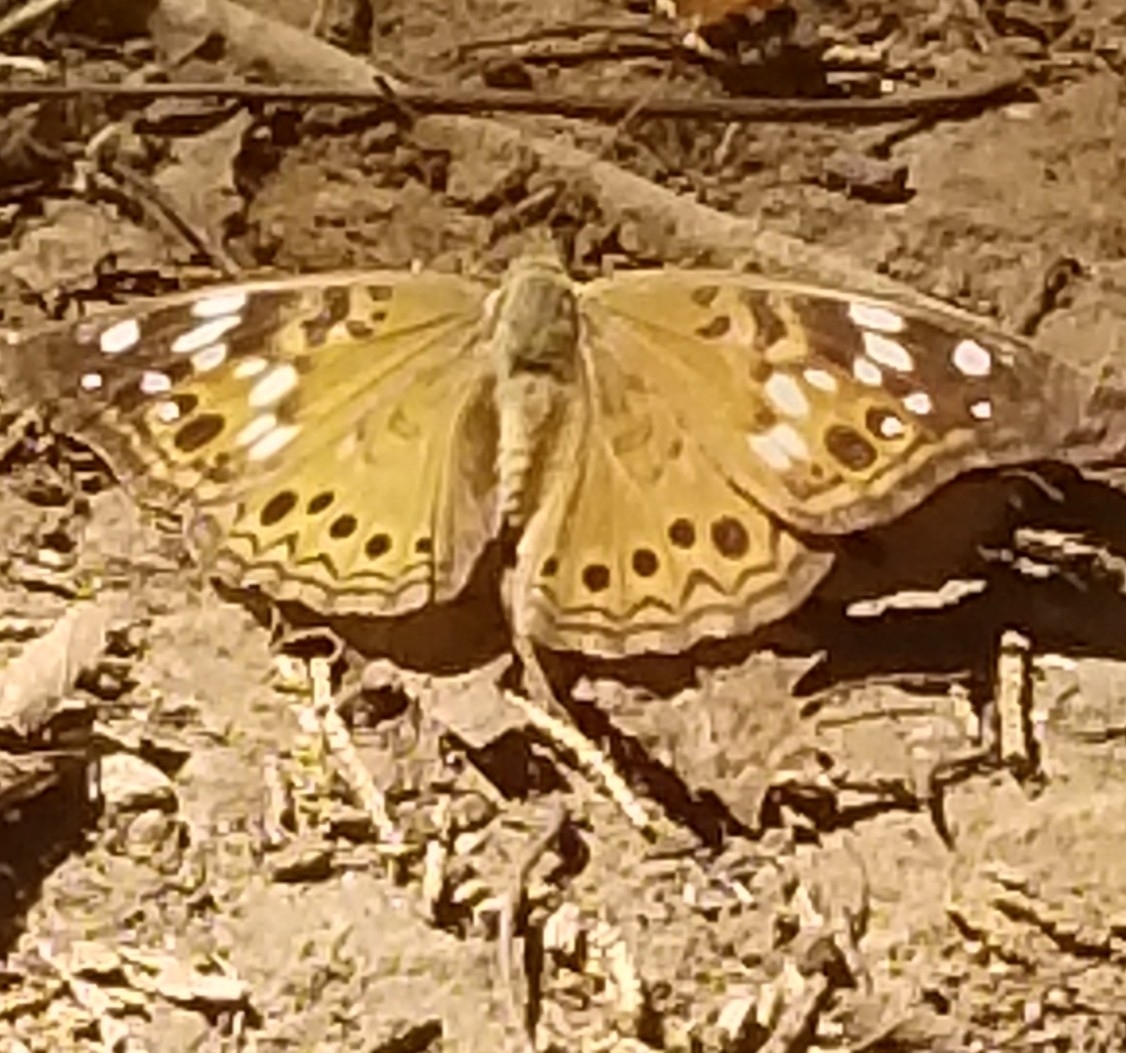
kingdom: Animalia
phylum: Arthropoda
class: Insecta
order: Lepidoptera
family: Nymphalidae
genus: Asterocampa
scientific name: Asterocampa celtis
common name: Hackberry emperor
